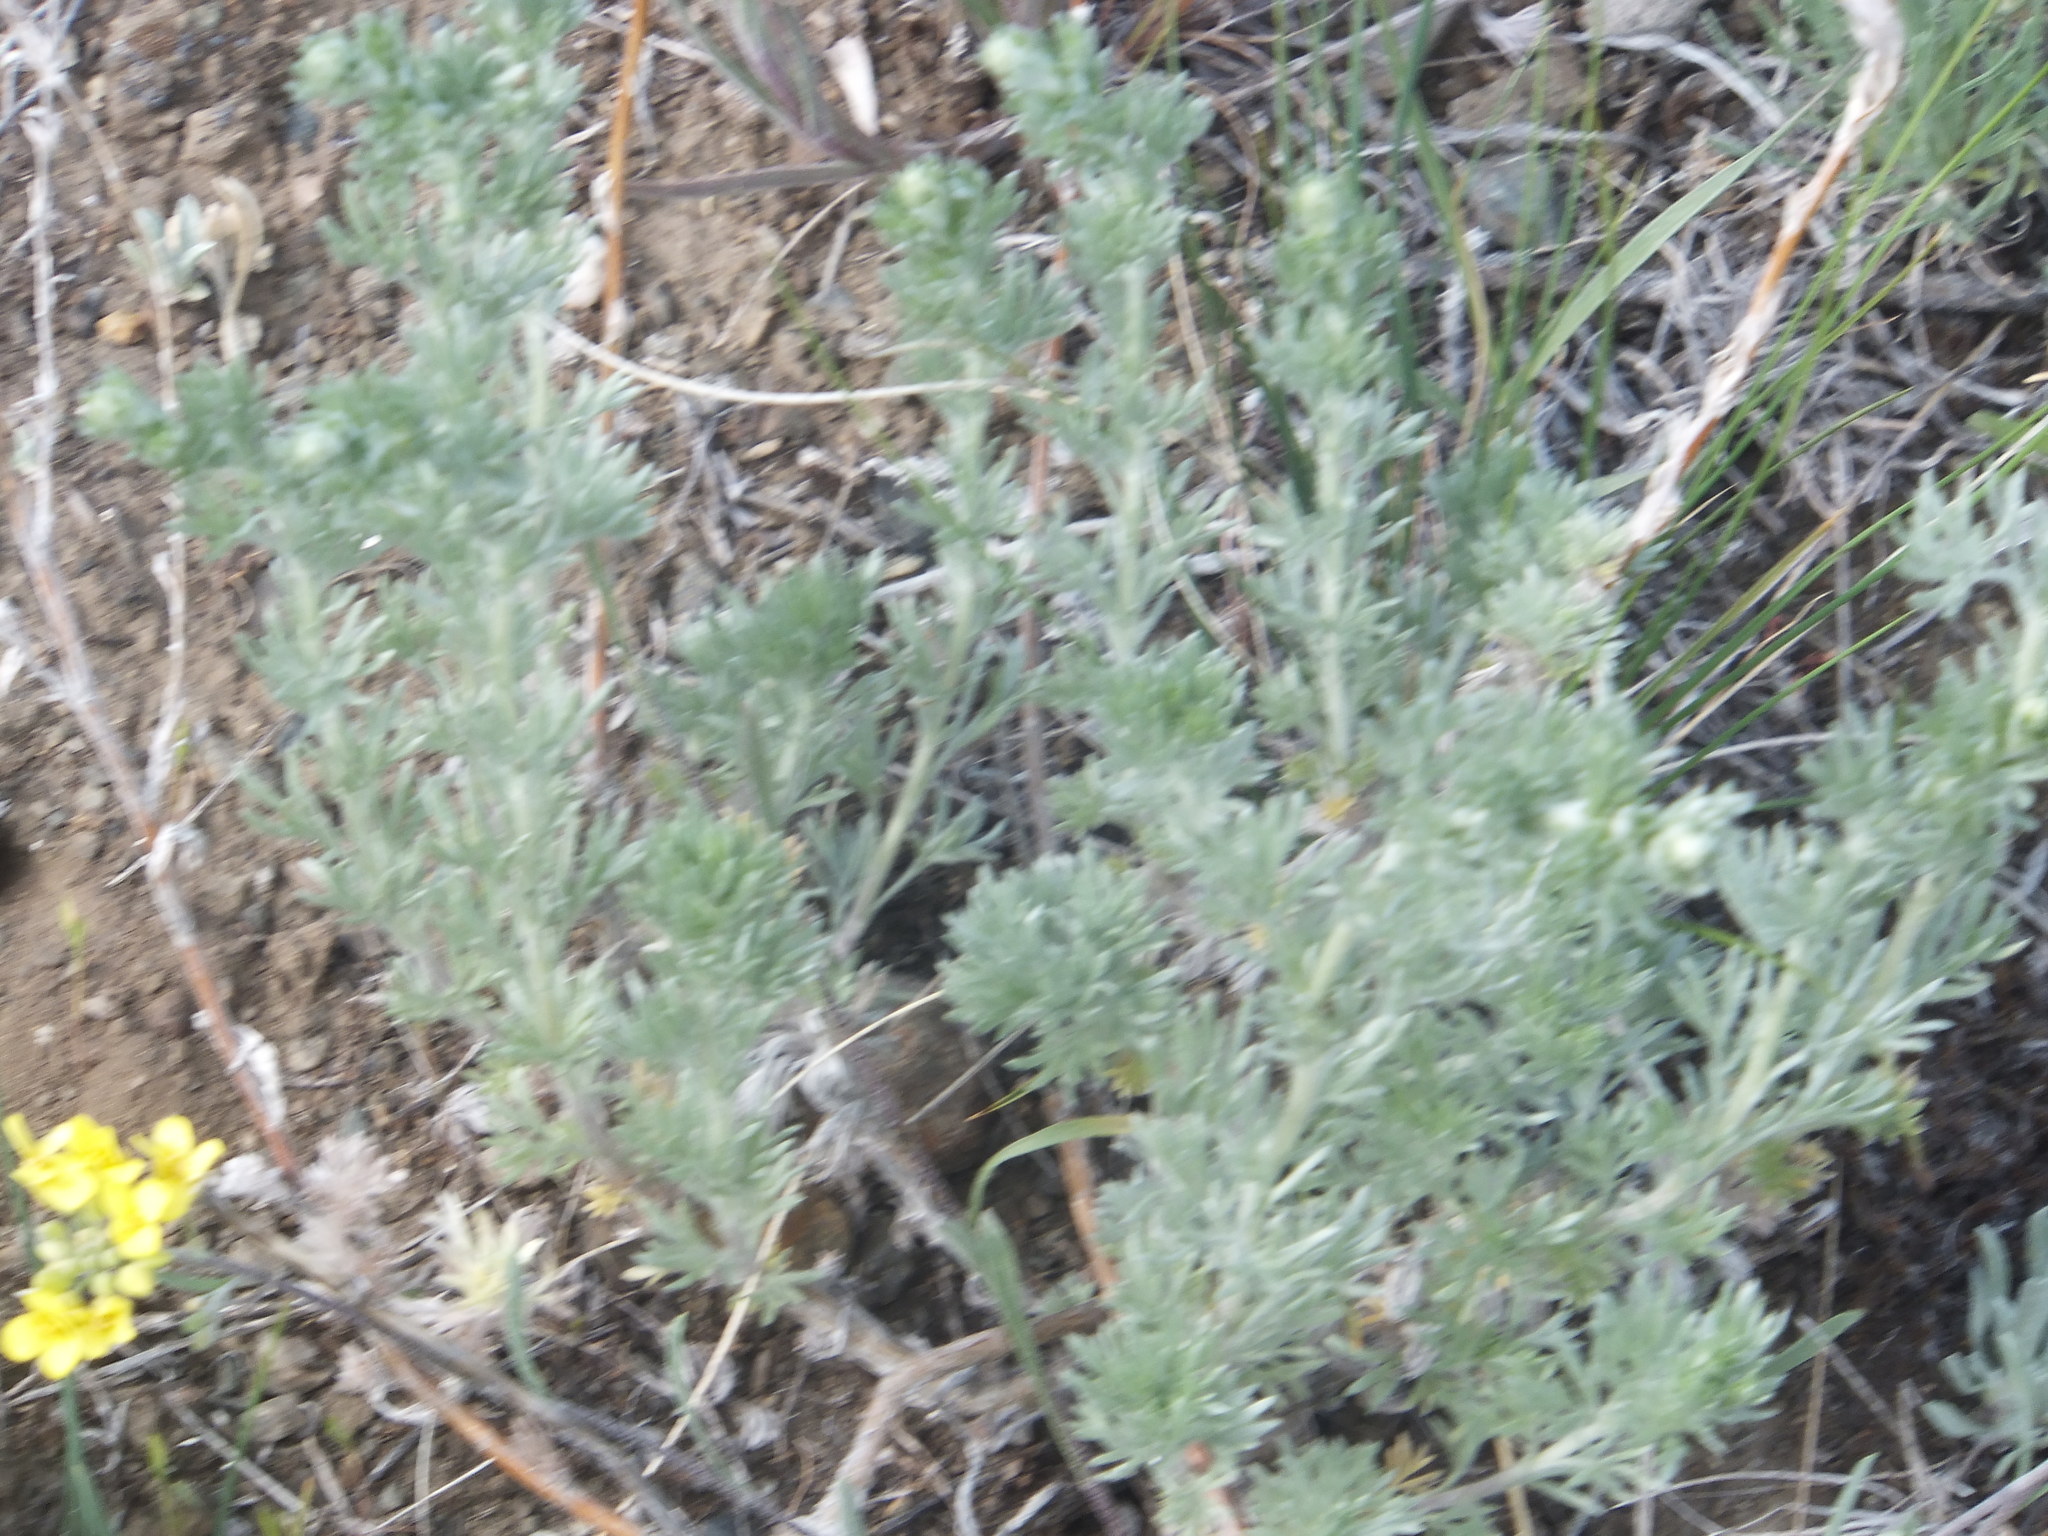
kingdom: Plantae
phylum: Tracheophyta
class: Magnoliopsida
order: Asterales
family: Asteraceae
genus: Artemisia
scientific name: Artemisia frigida
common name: Prairie sagewort
